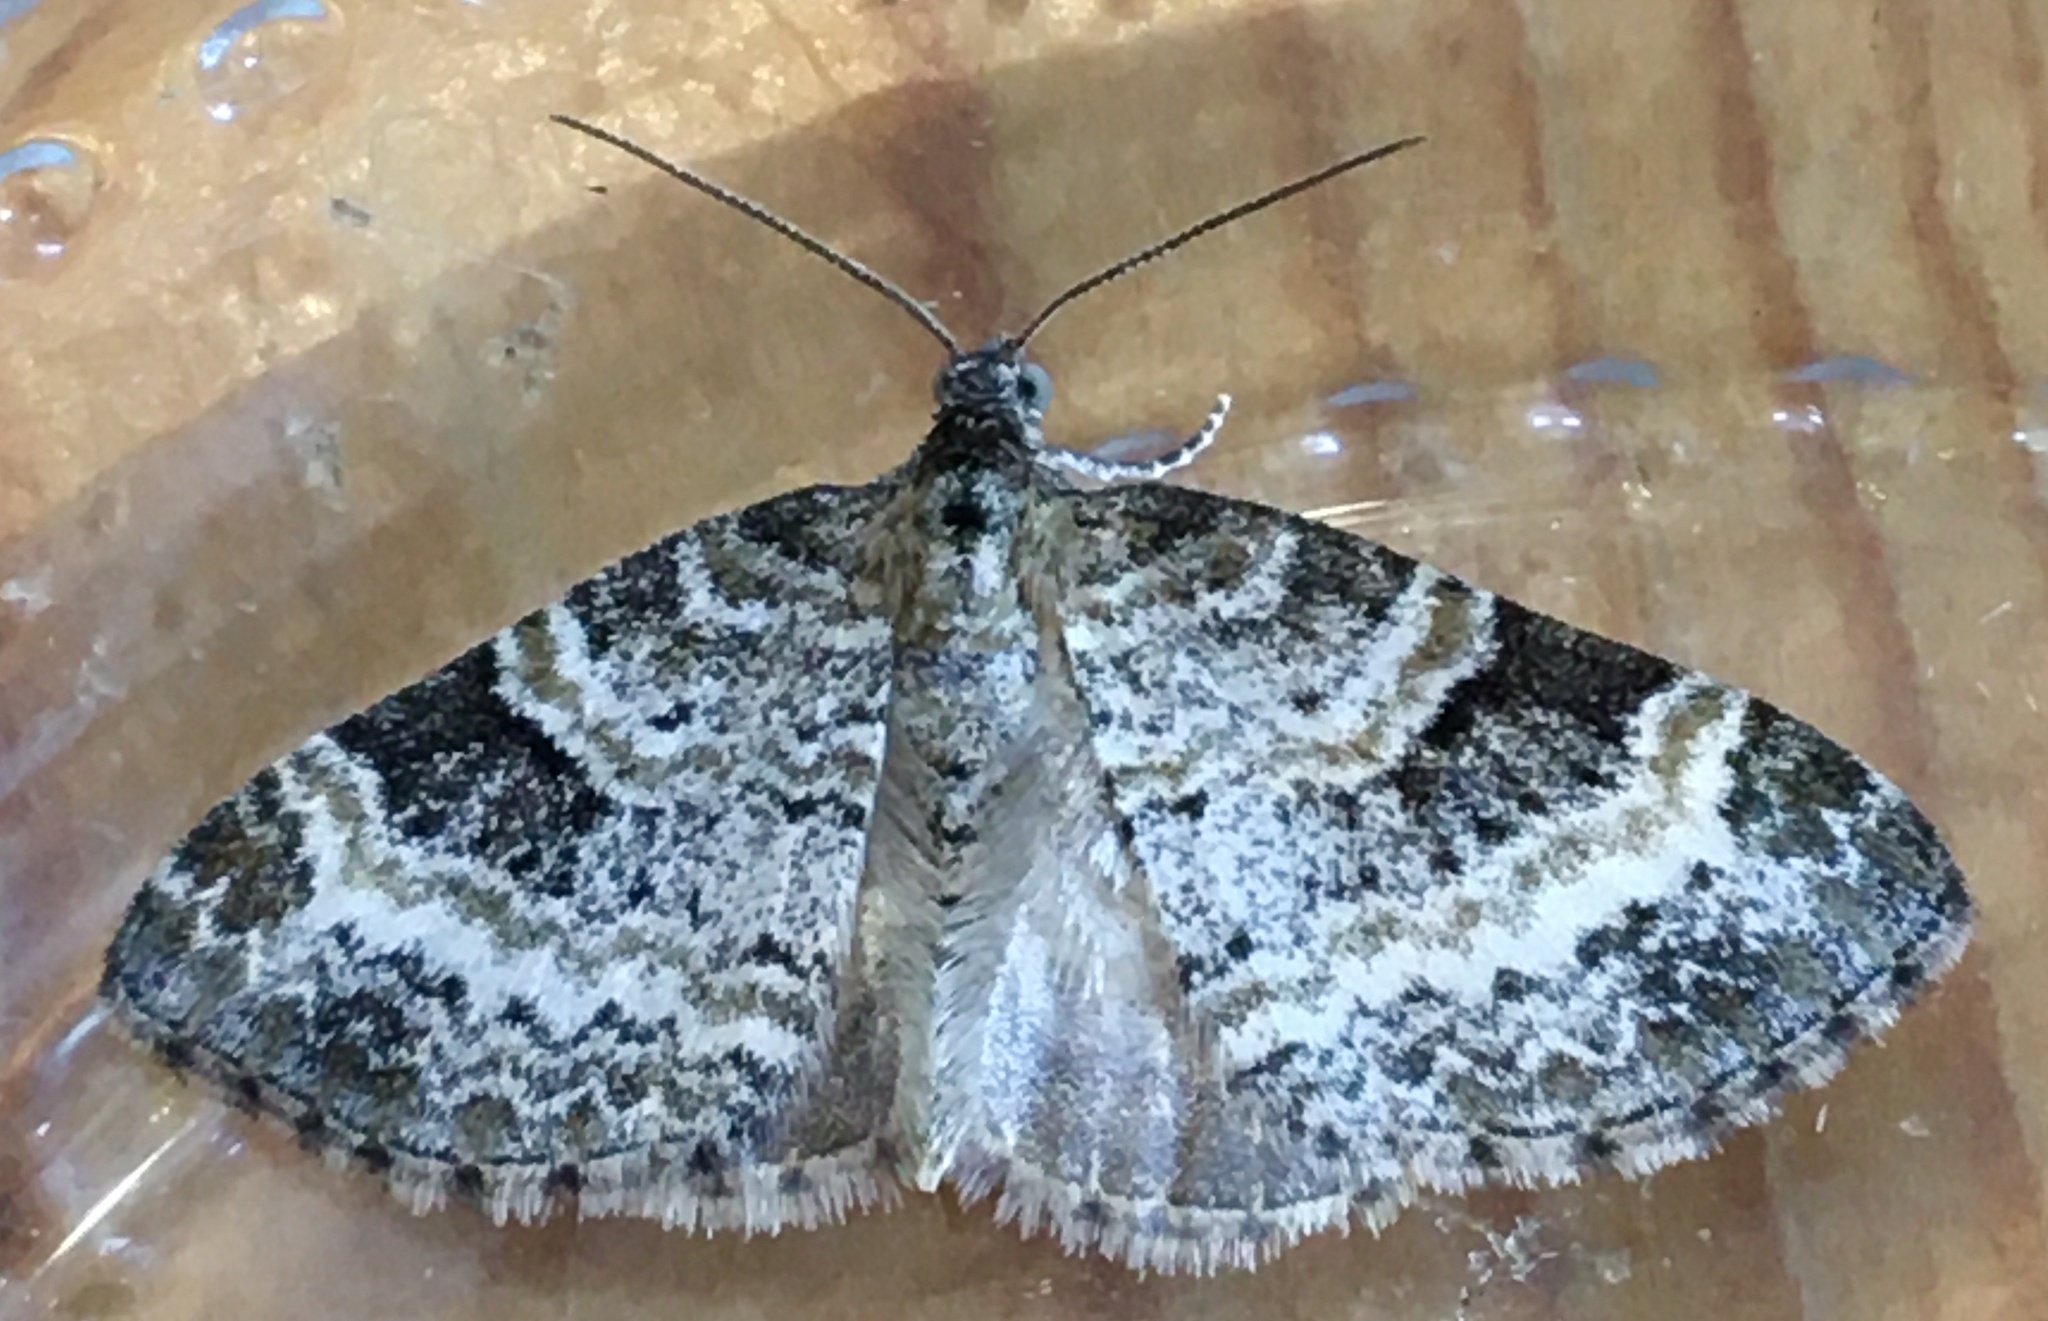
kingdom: Animalia
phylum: Arthropoda
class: Insecta
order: Lepidoptera
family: Geometridae
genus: Pterapherapteryx
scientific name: Pterapherapteryx sexalata
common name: Small seraphim
